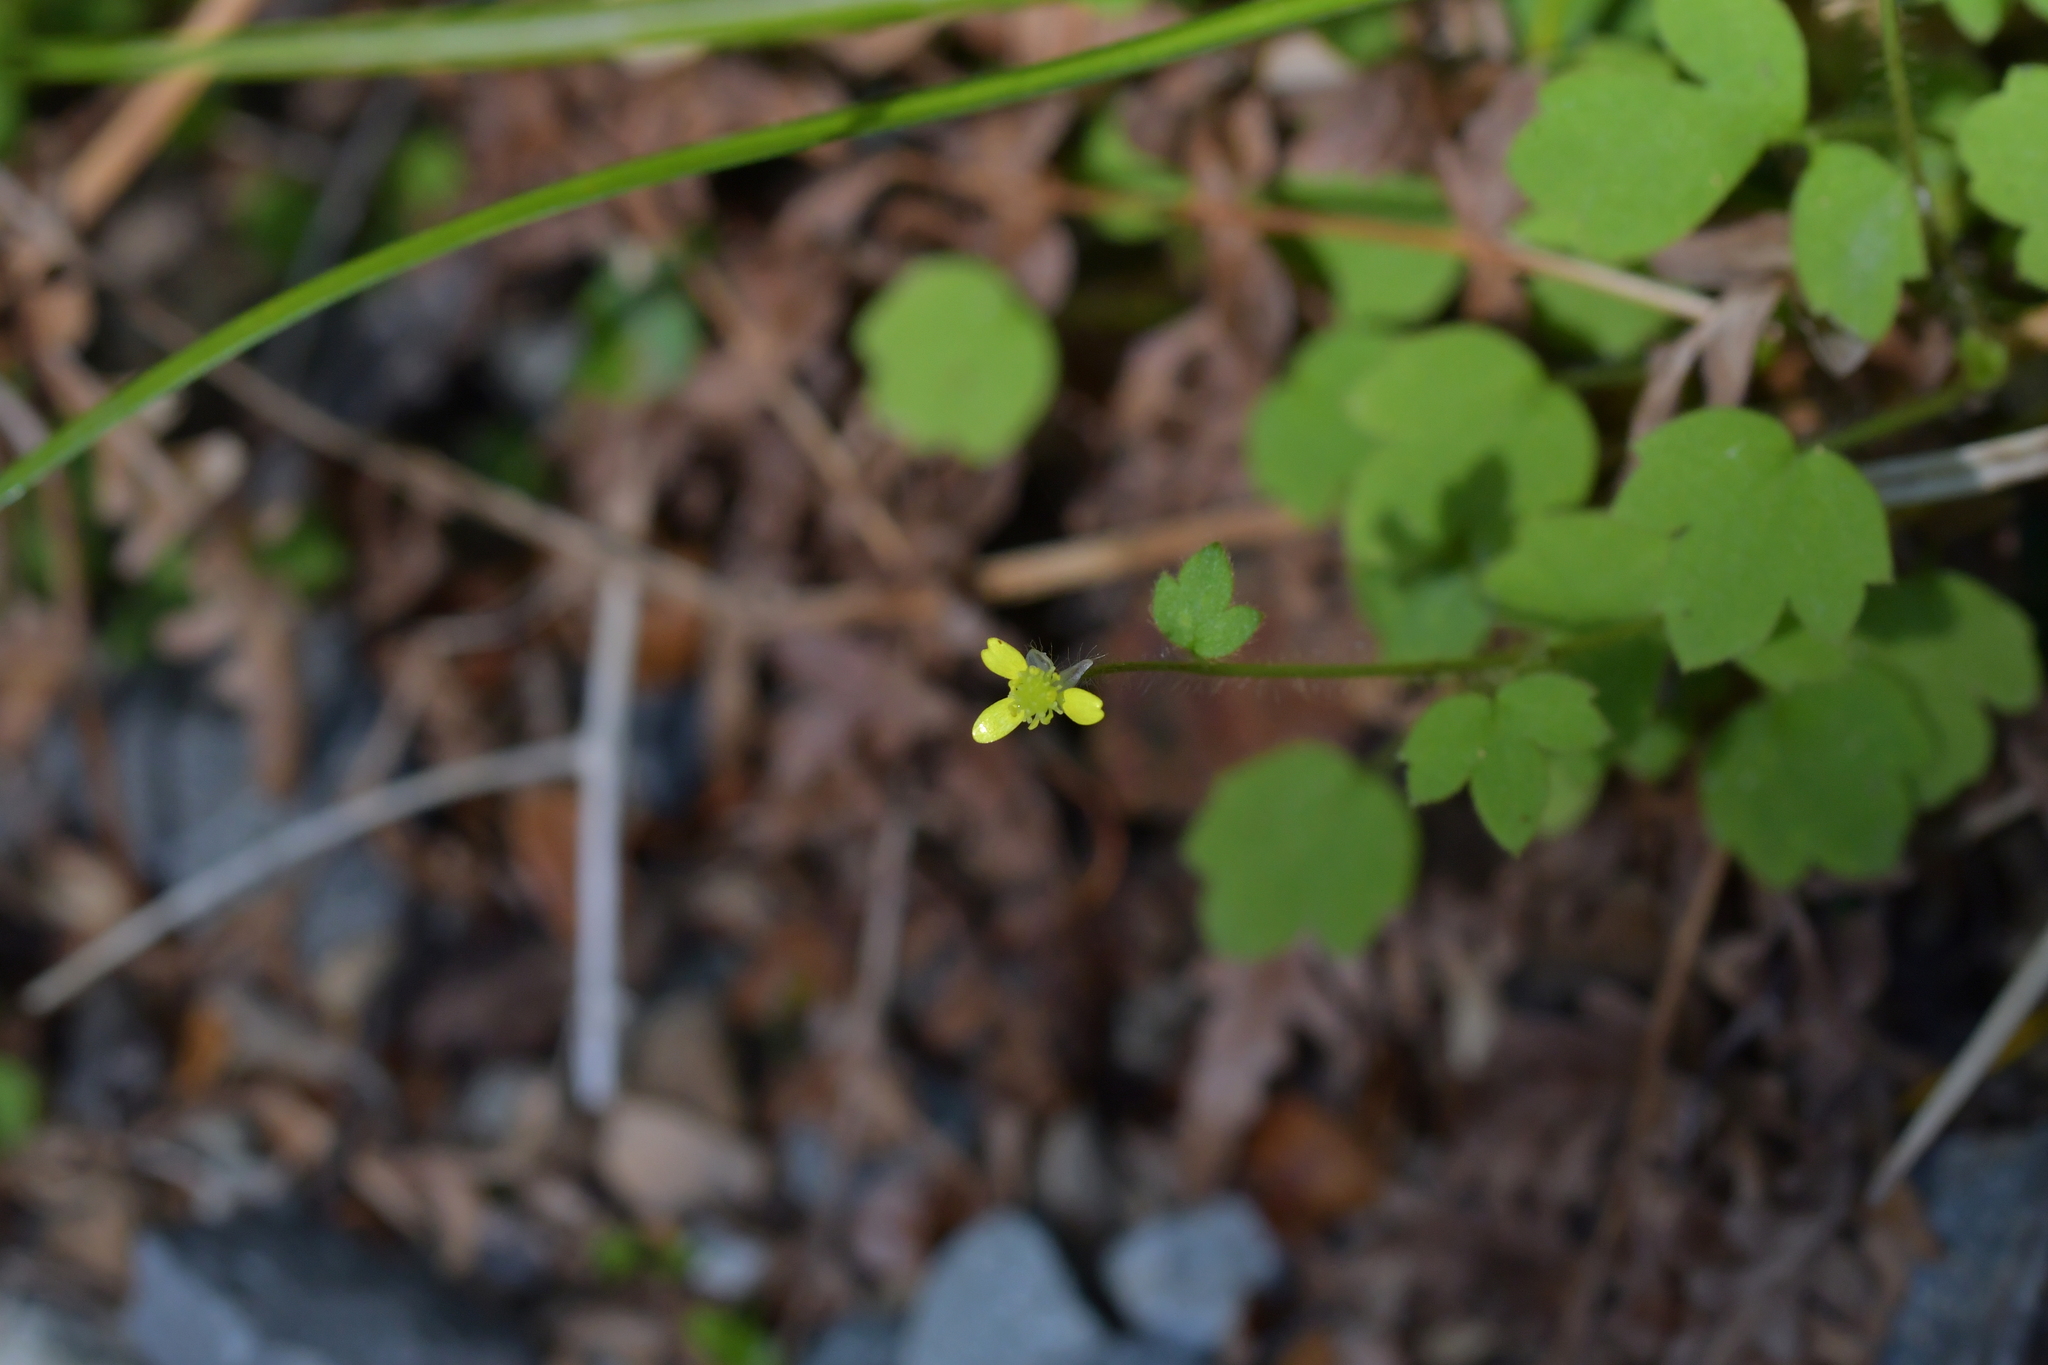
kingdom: Plantae
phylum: Tracheophyta
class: Magnoliopsida
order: Ranunculales
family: Ranunculaceae
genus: Ranunculus
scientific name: Ranunculus reflexus
